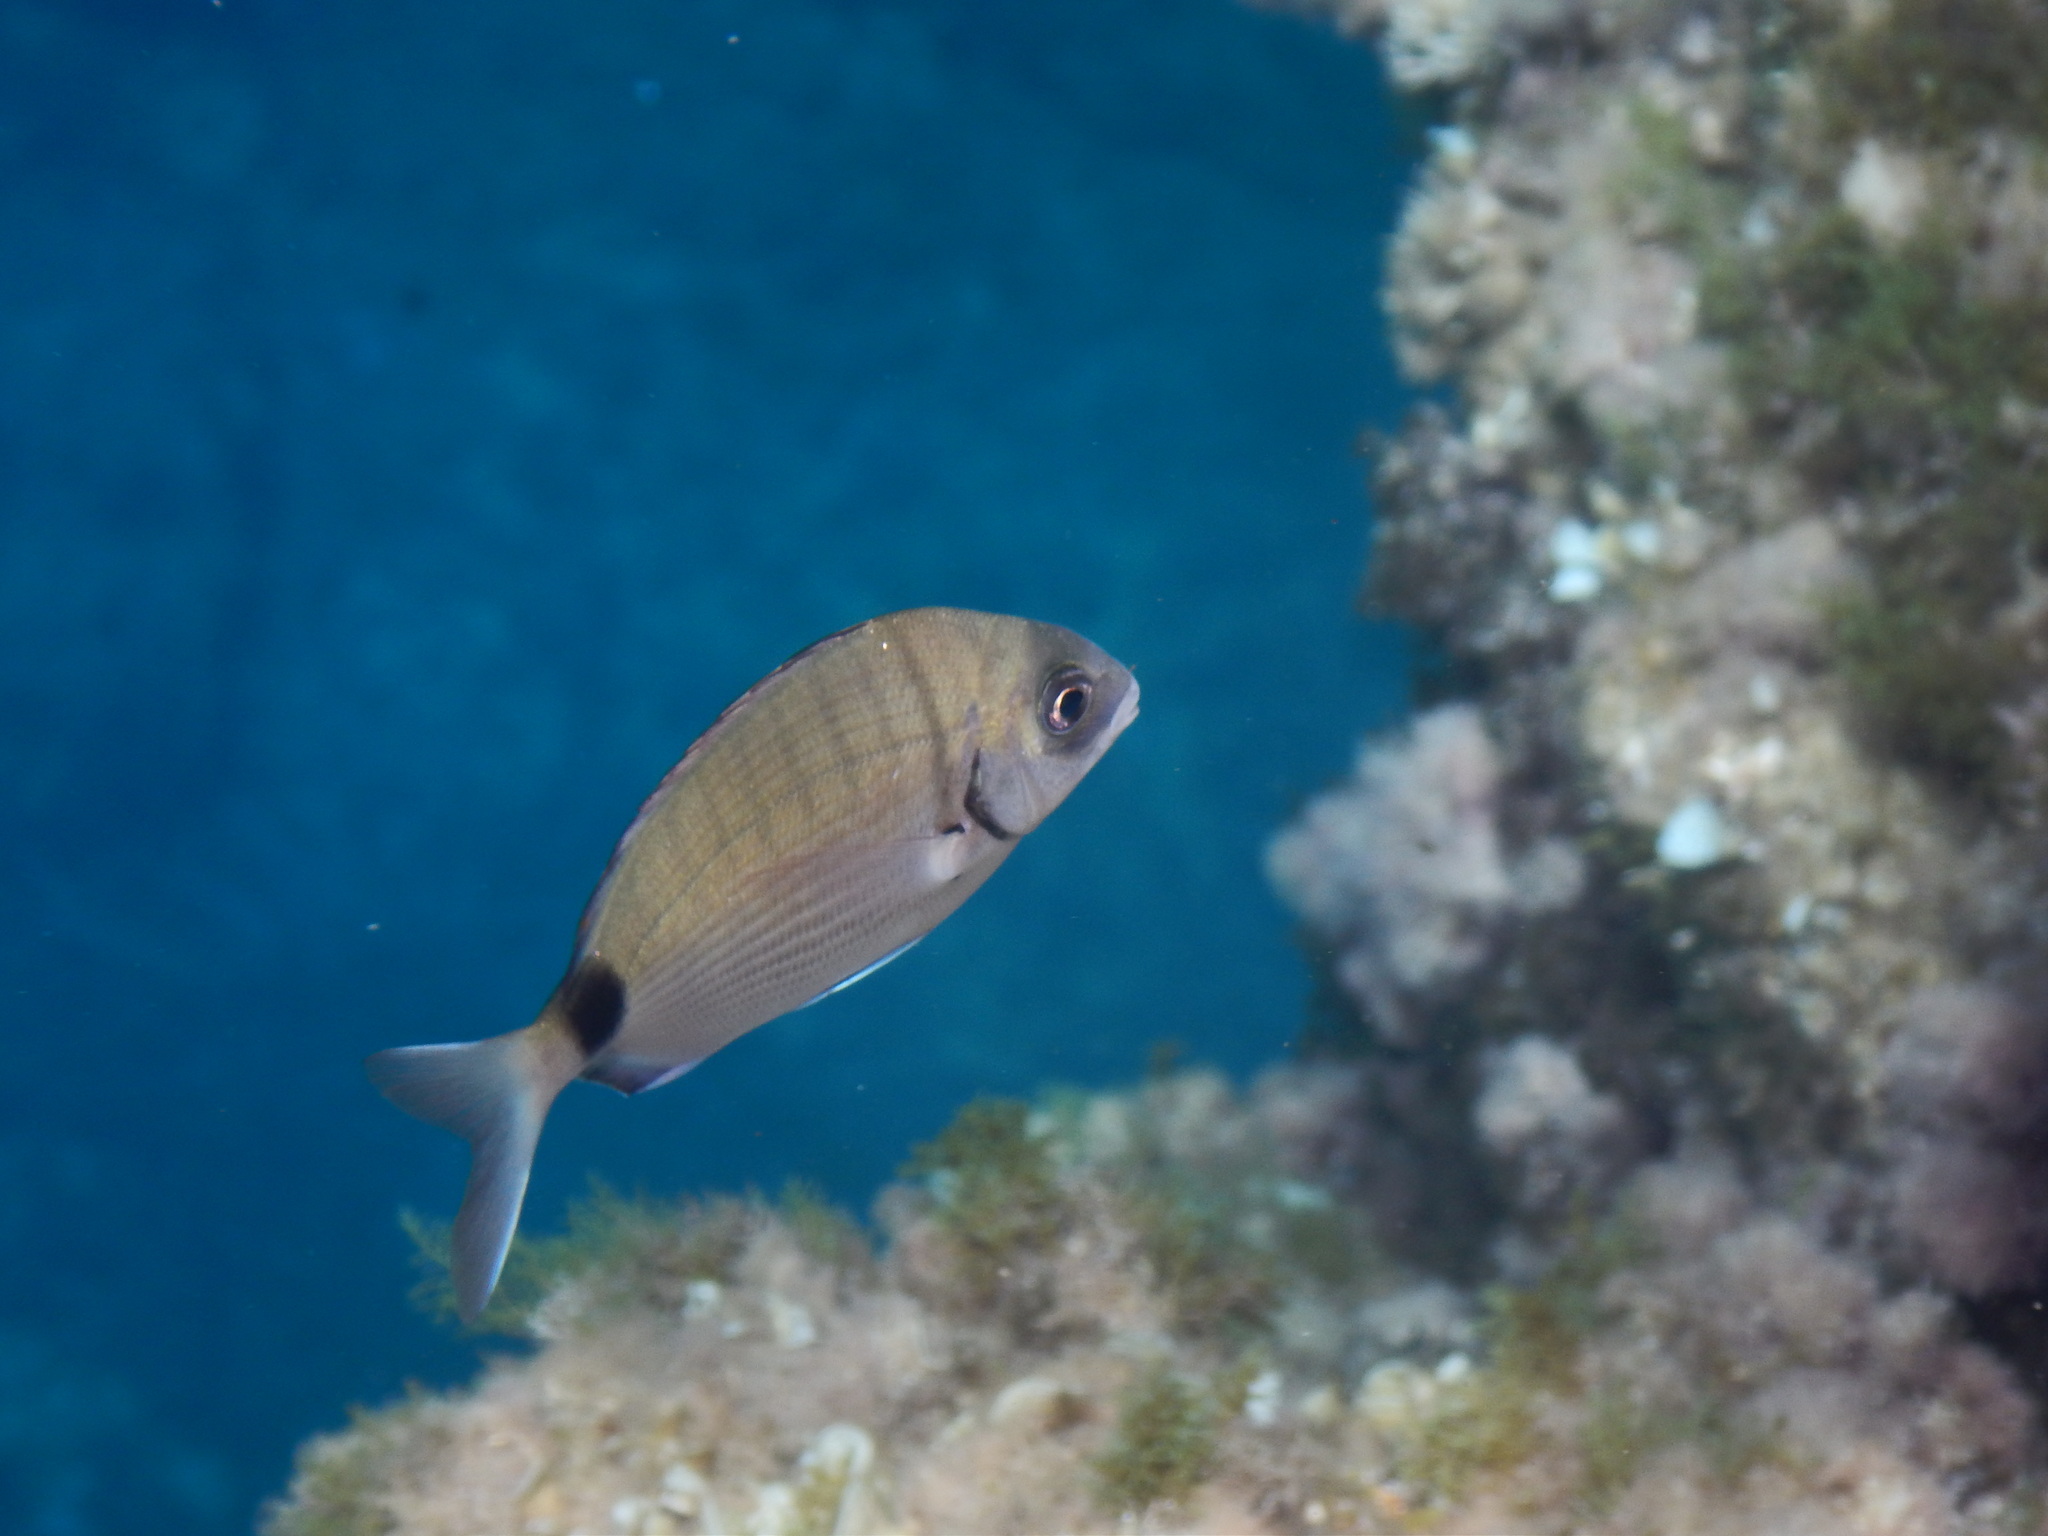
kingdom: Animalia
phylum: Chordata
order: Perciformes
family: Sparidae
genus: Diplodus
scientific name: Diplodus sargus
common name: White seabream
